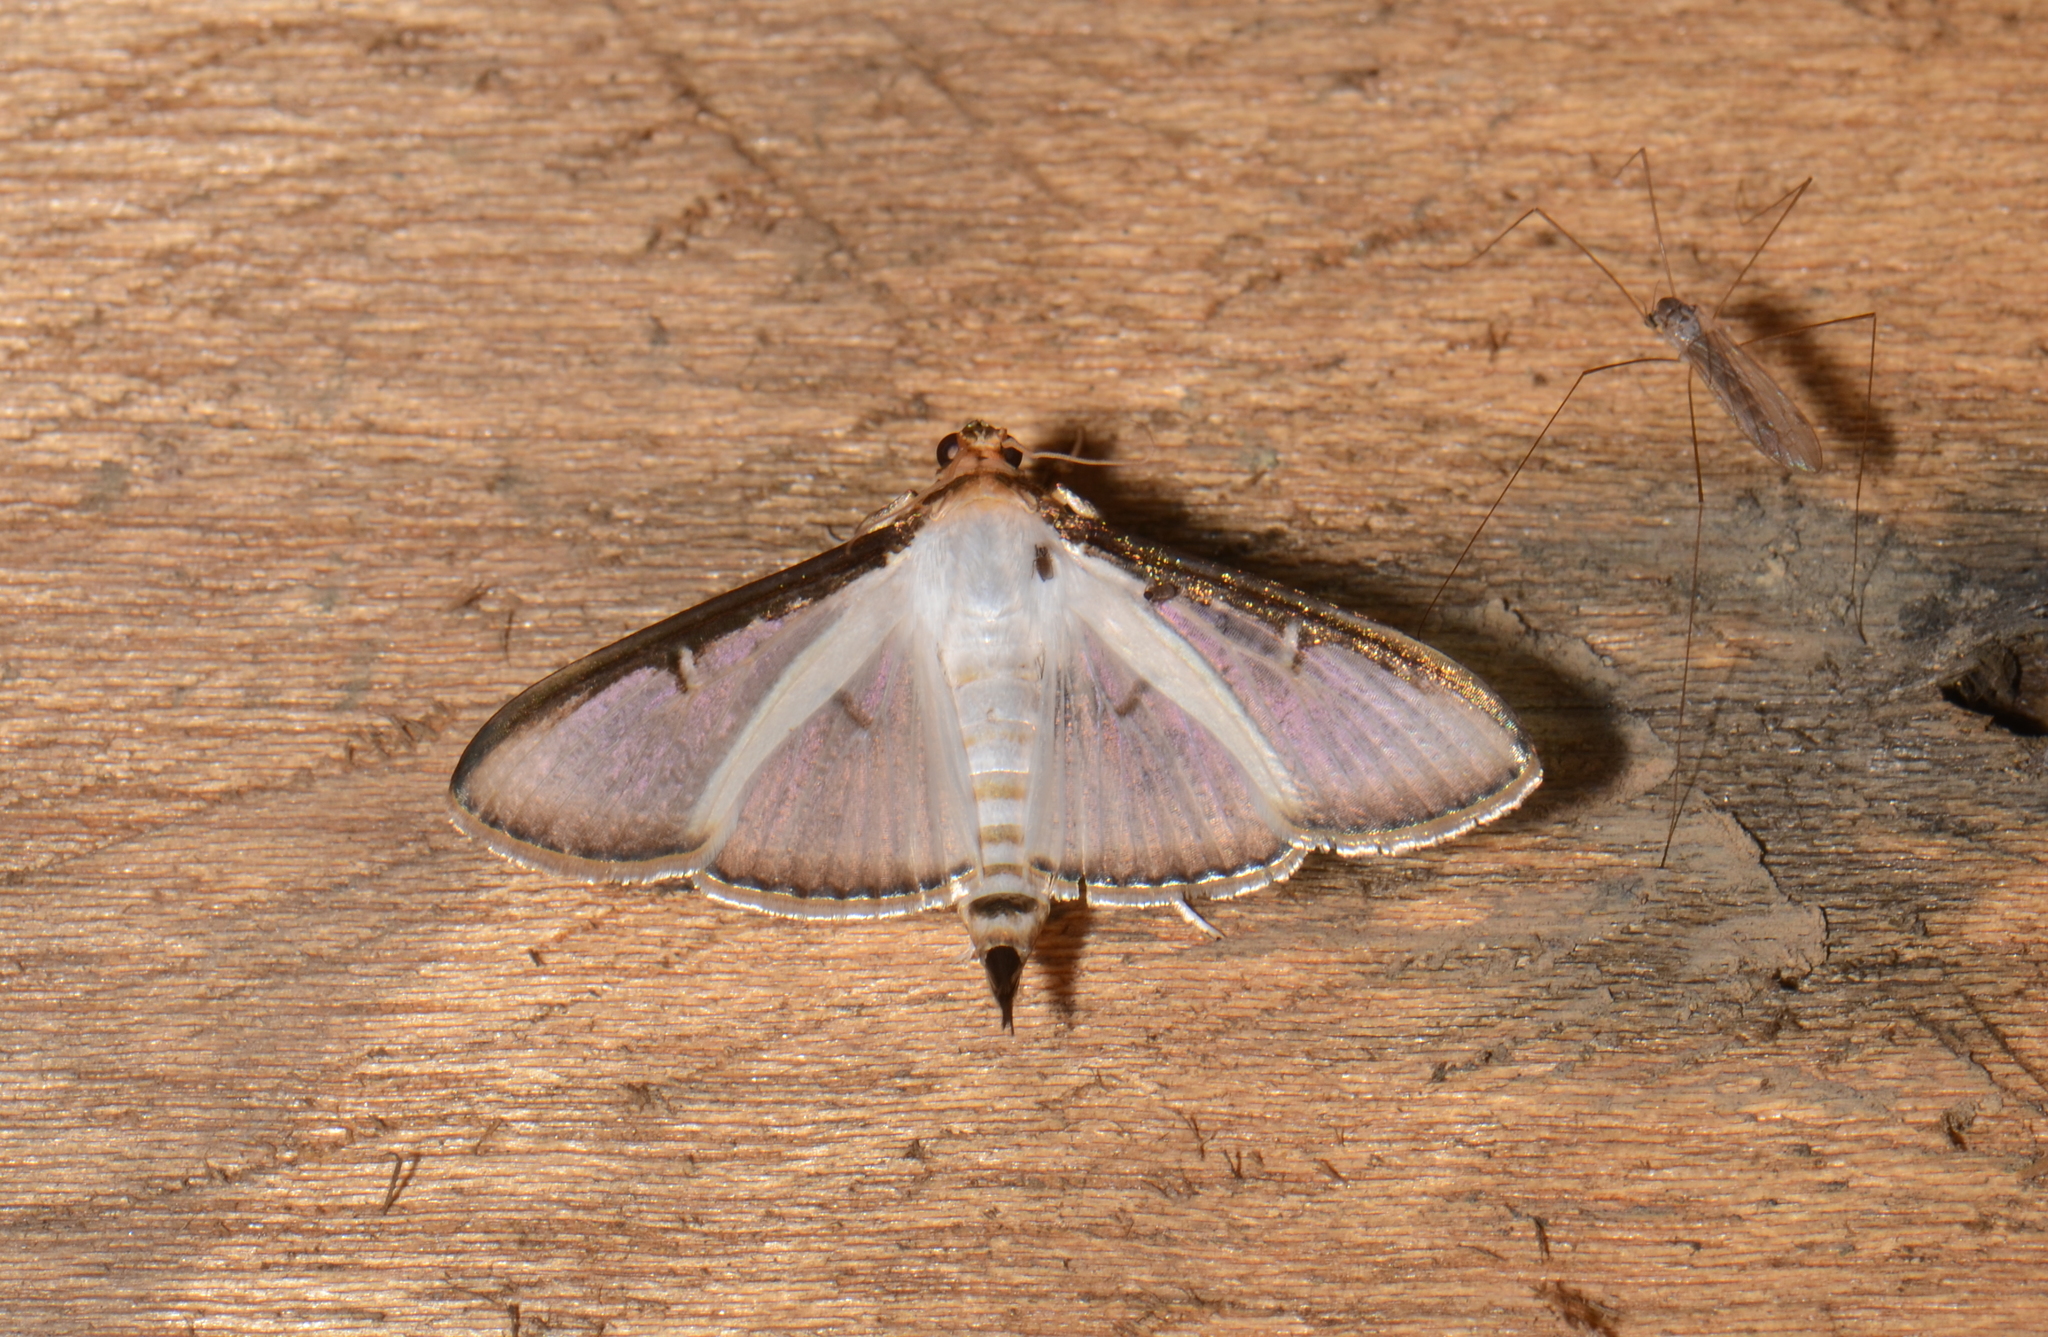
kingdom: Animalia
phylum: Arthropoda
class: Insecta
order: Lepidoptera
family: Crambidae
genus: Cydalima
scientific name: Cydalima
